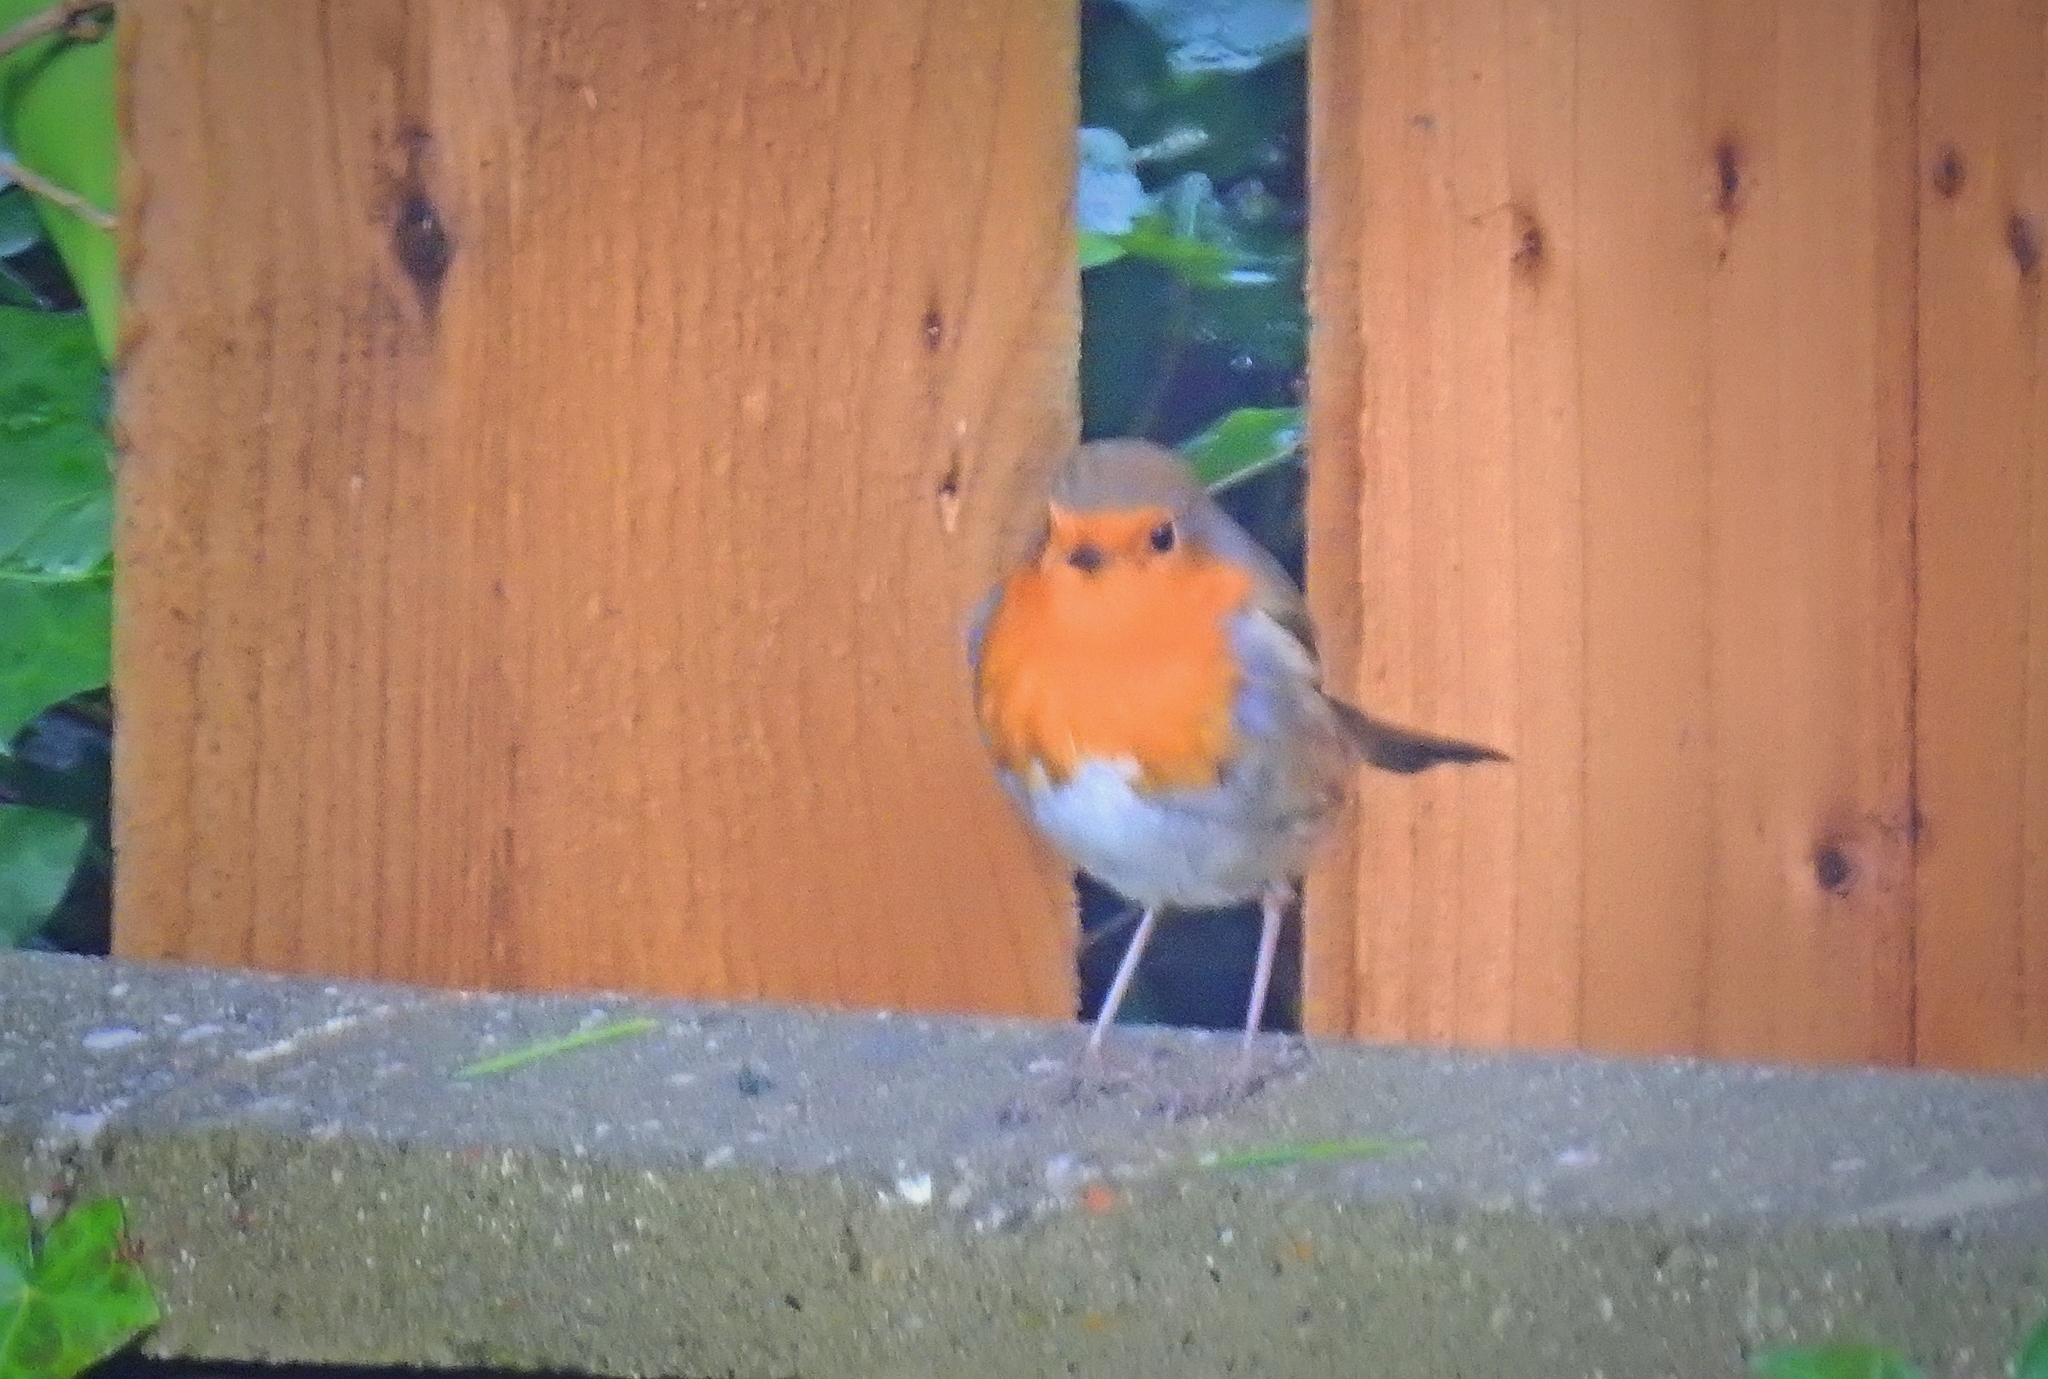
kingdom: Animalia
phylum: Chordata
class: Aves
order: Passeriformes
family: Muscicapidae
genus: Erithacus
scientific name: Erithacus rubecula
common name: European robin
